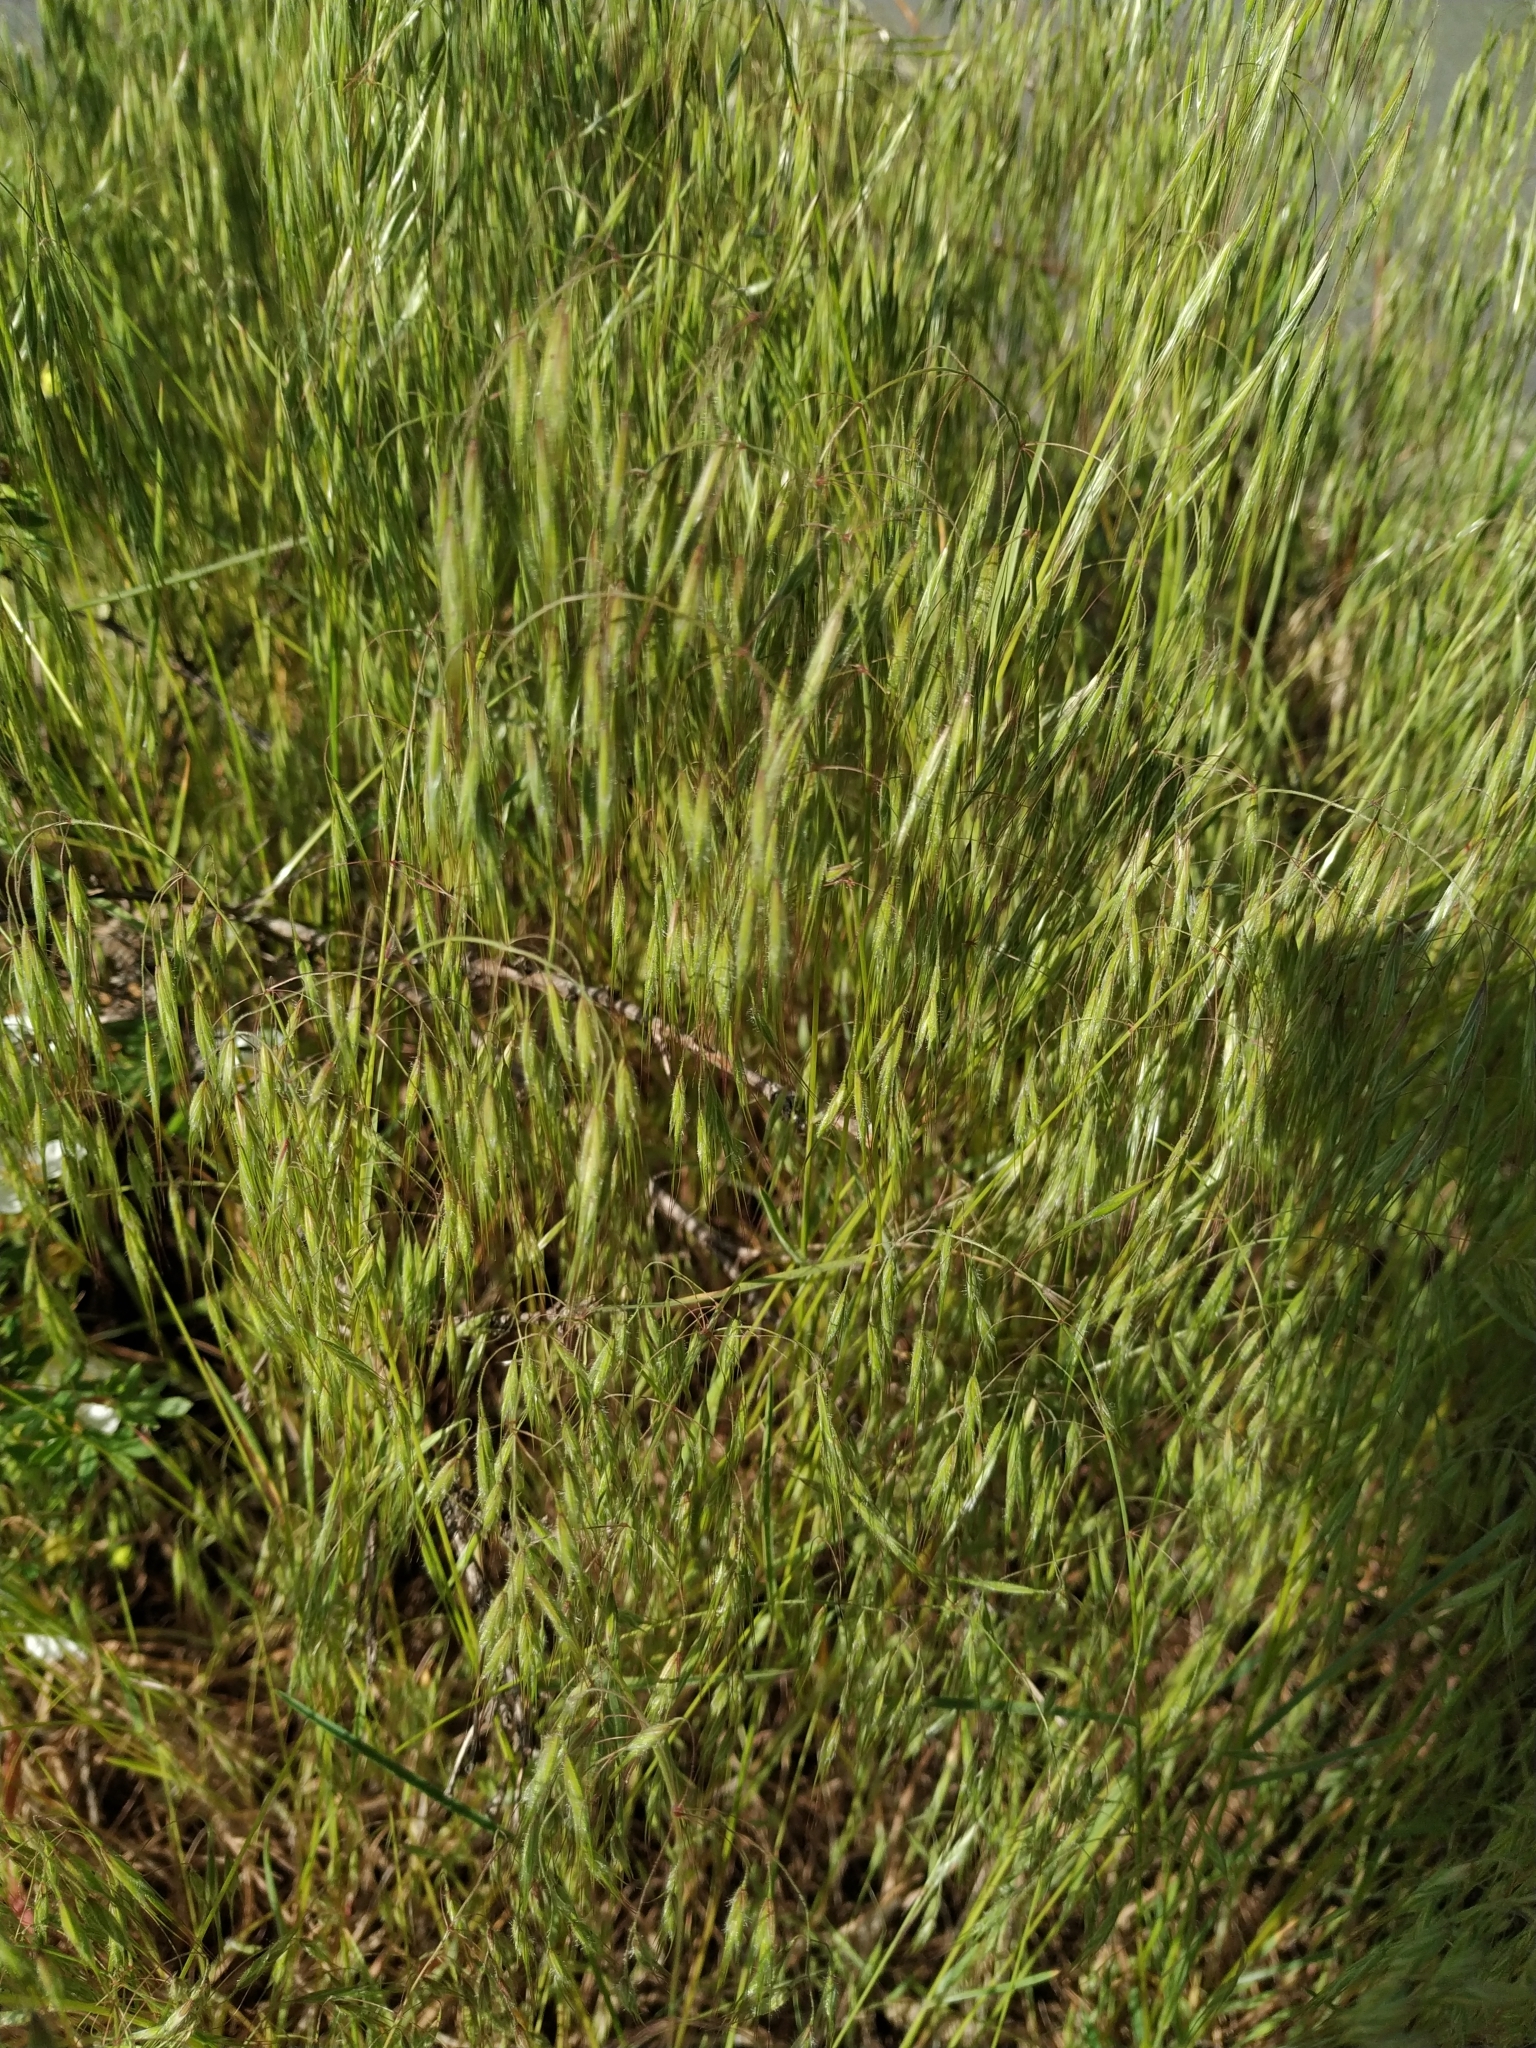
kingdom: Plantae
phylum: Tracheophyta
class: Liliopsida
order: Poales
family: Poaceae
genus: Bromus
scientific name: Bromus tectorum
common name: Cheatgrass
